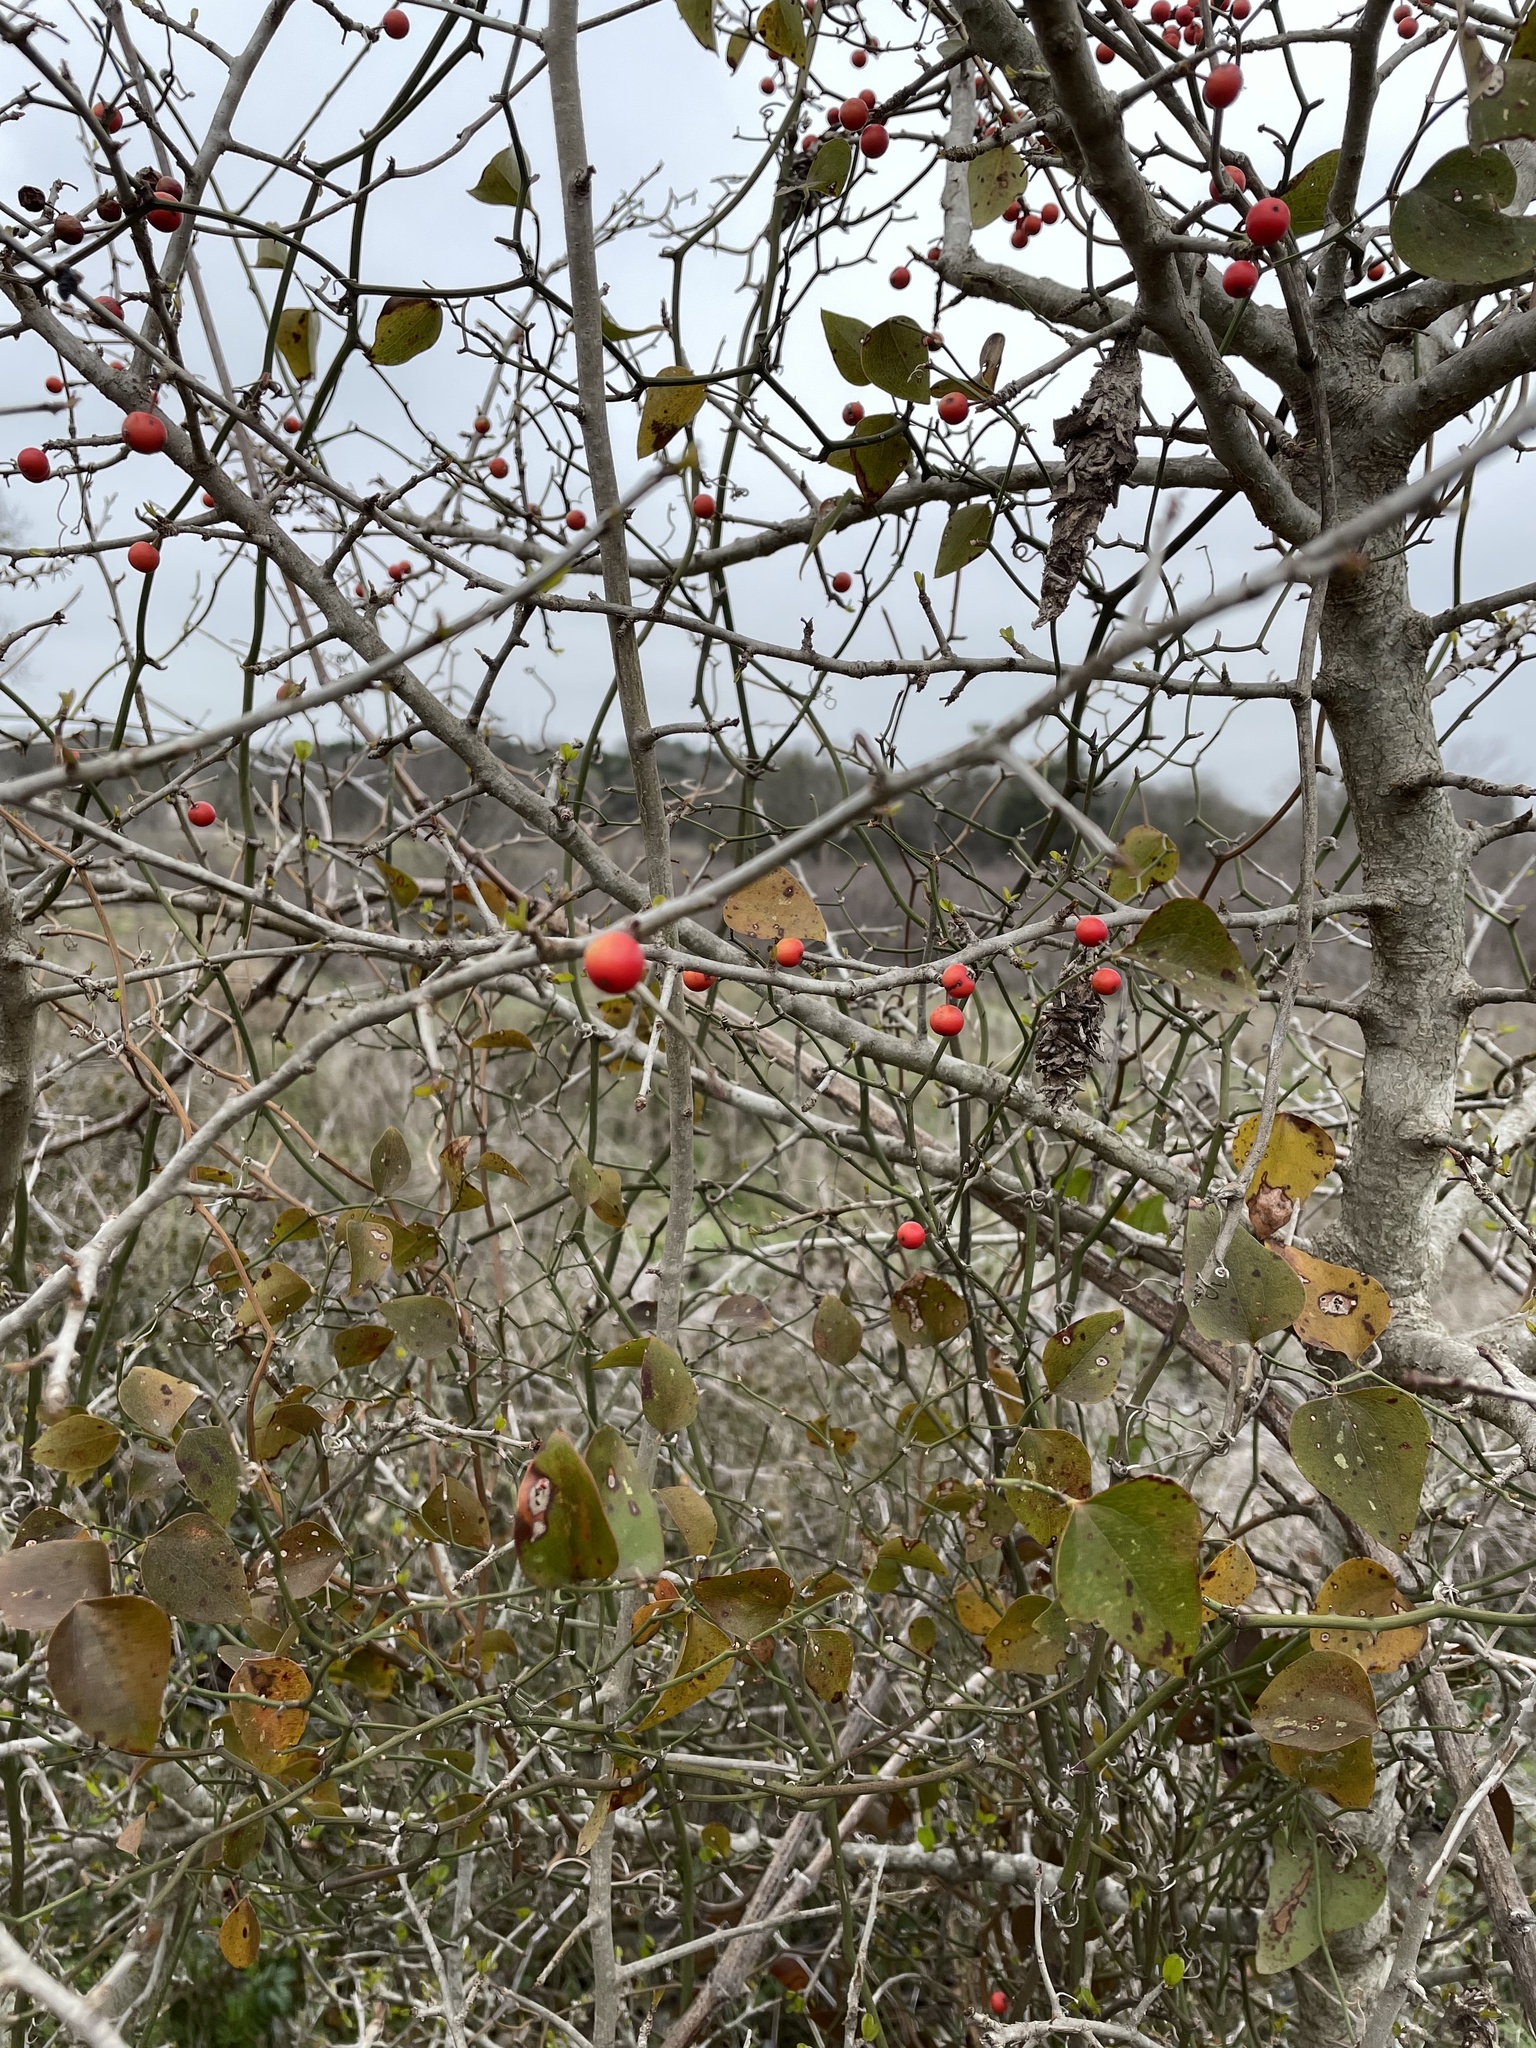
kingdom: Plantae
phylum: Tracheophyta
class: Magnoliopsida
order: Aquifoliales
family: Aquifoliaceae
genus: Ilex
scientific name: Ilex decidua
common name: Possum-haw
